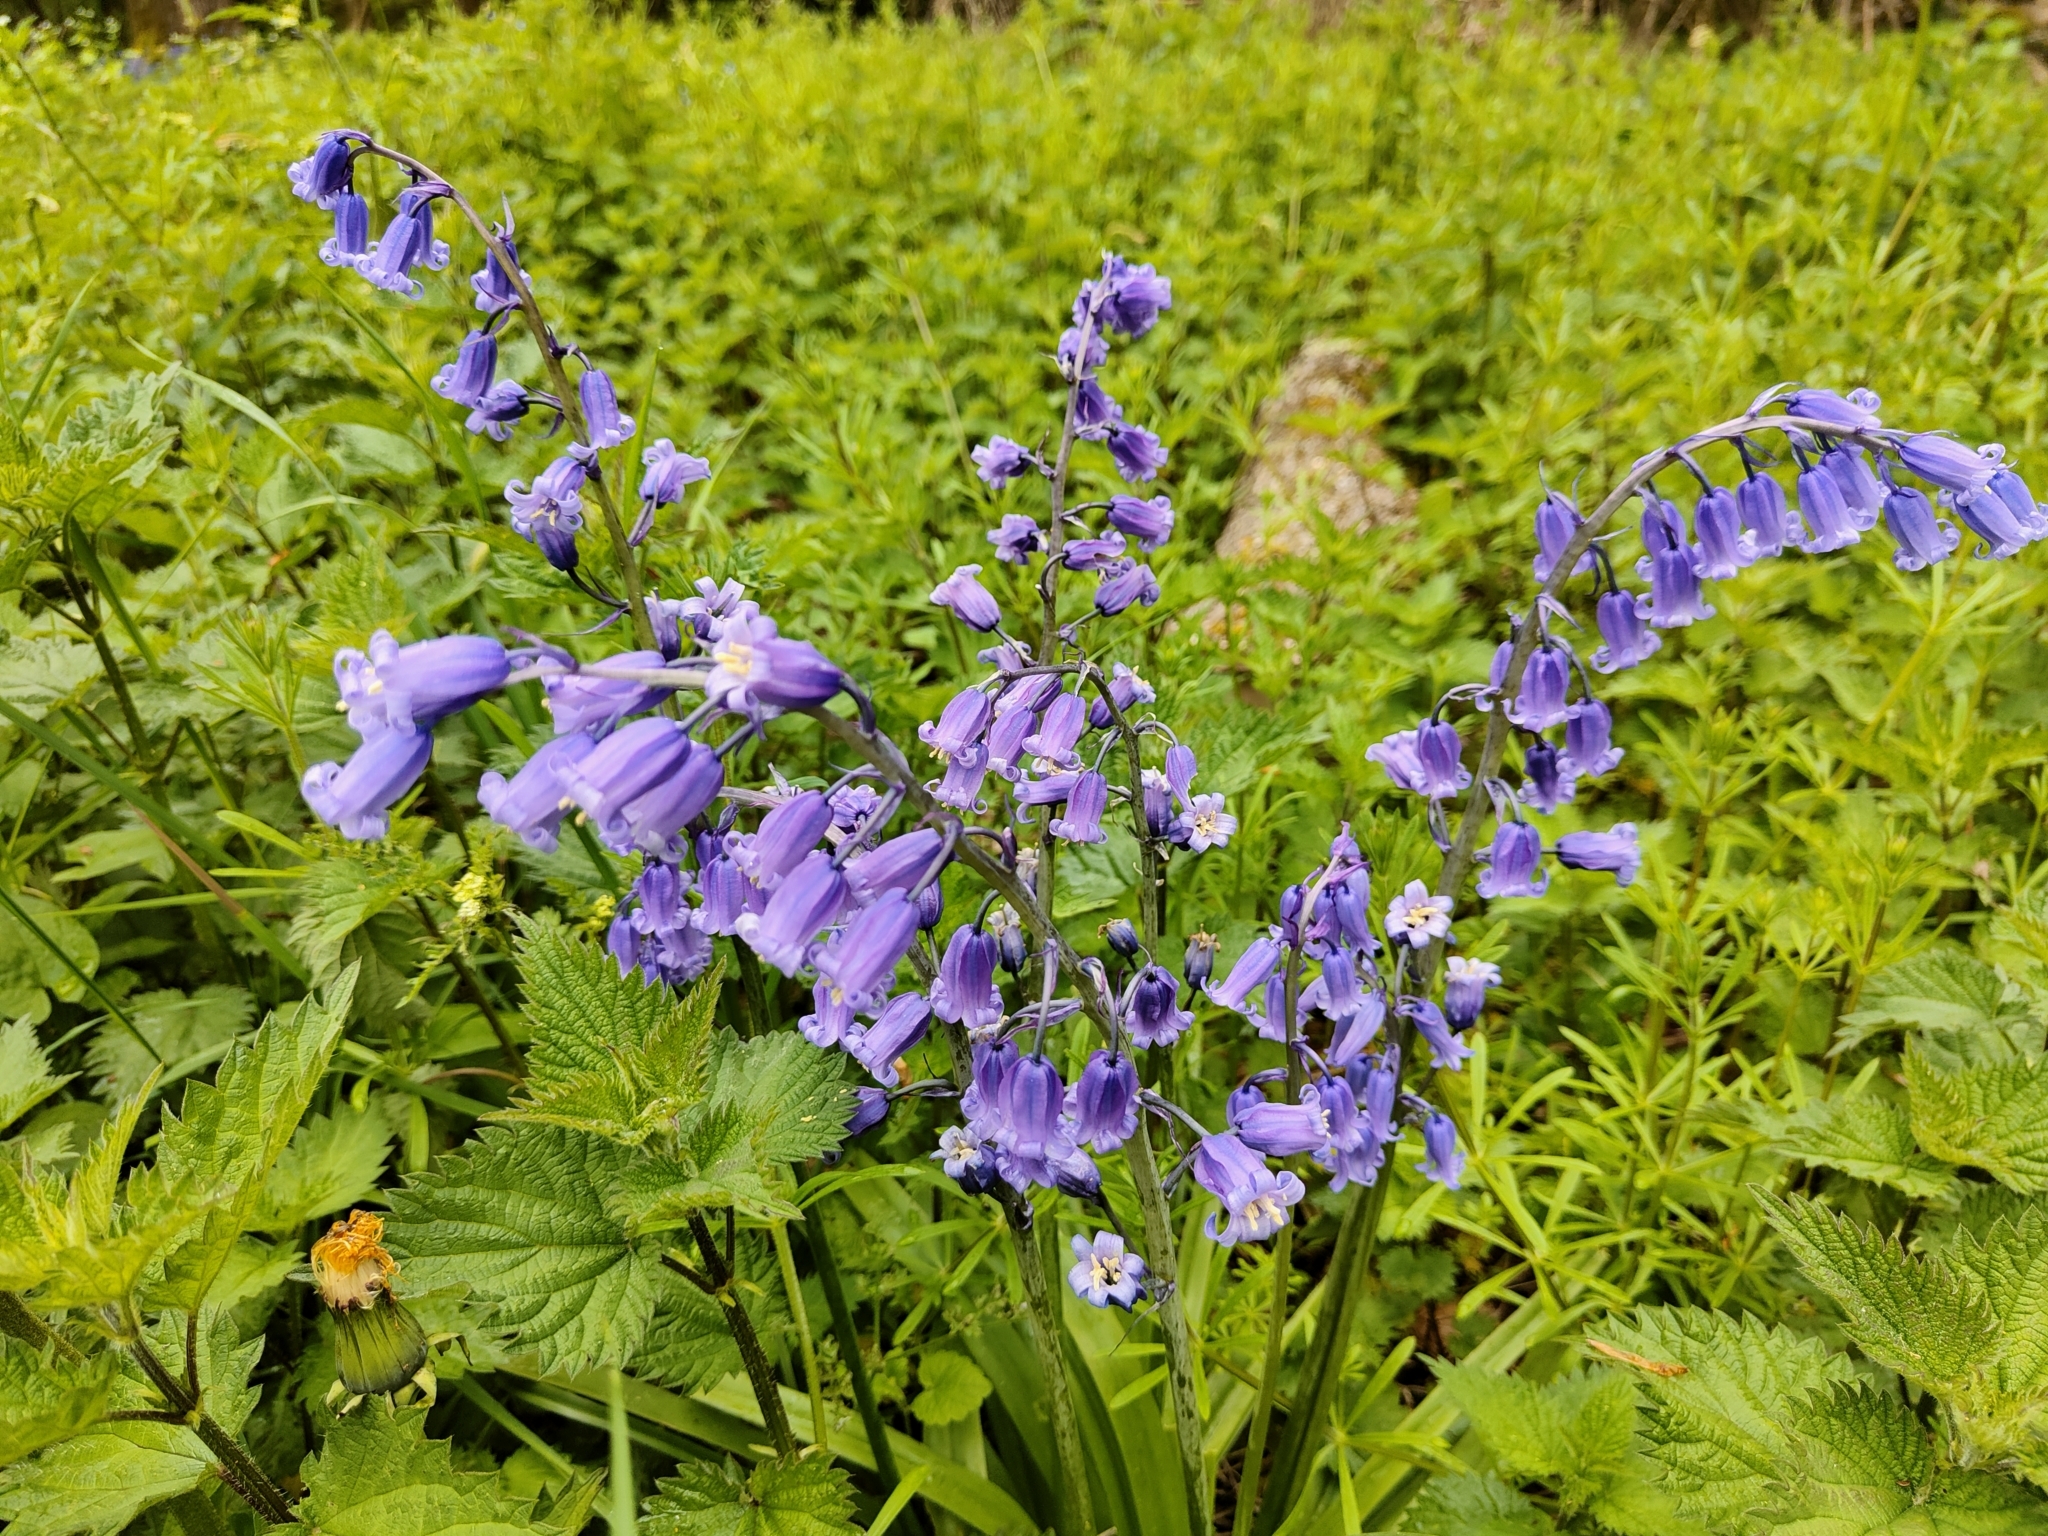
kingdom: Plantae
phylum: Tracheophyta
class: Liliopsida
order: Asparagales
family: Asparagaceae
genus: Hyacinthoides
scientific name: Hyacinthoides non-scripta
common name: Bluebell
